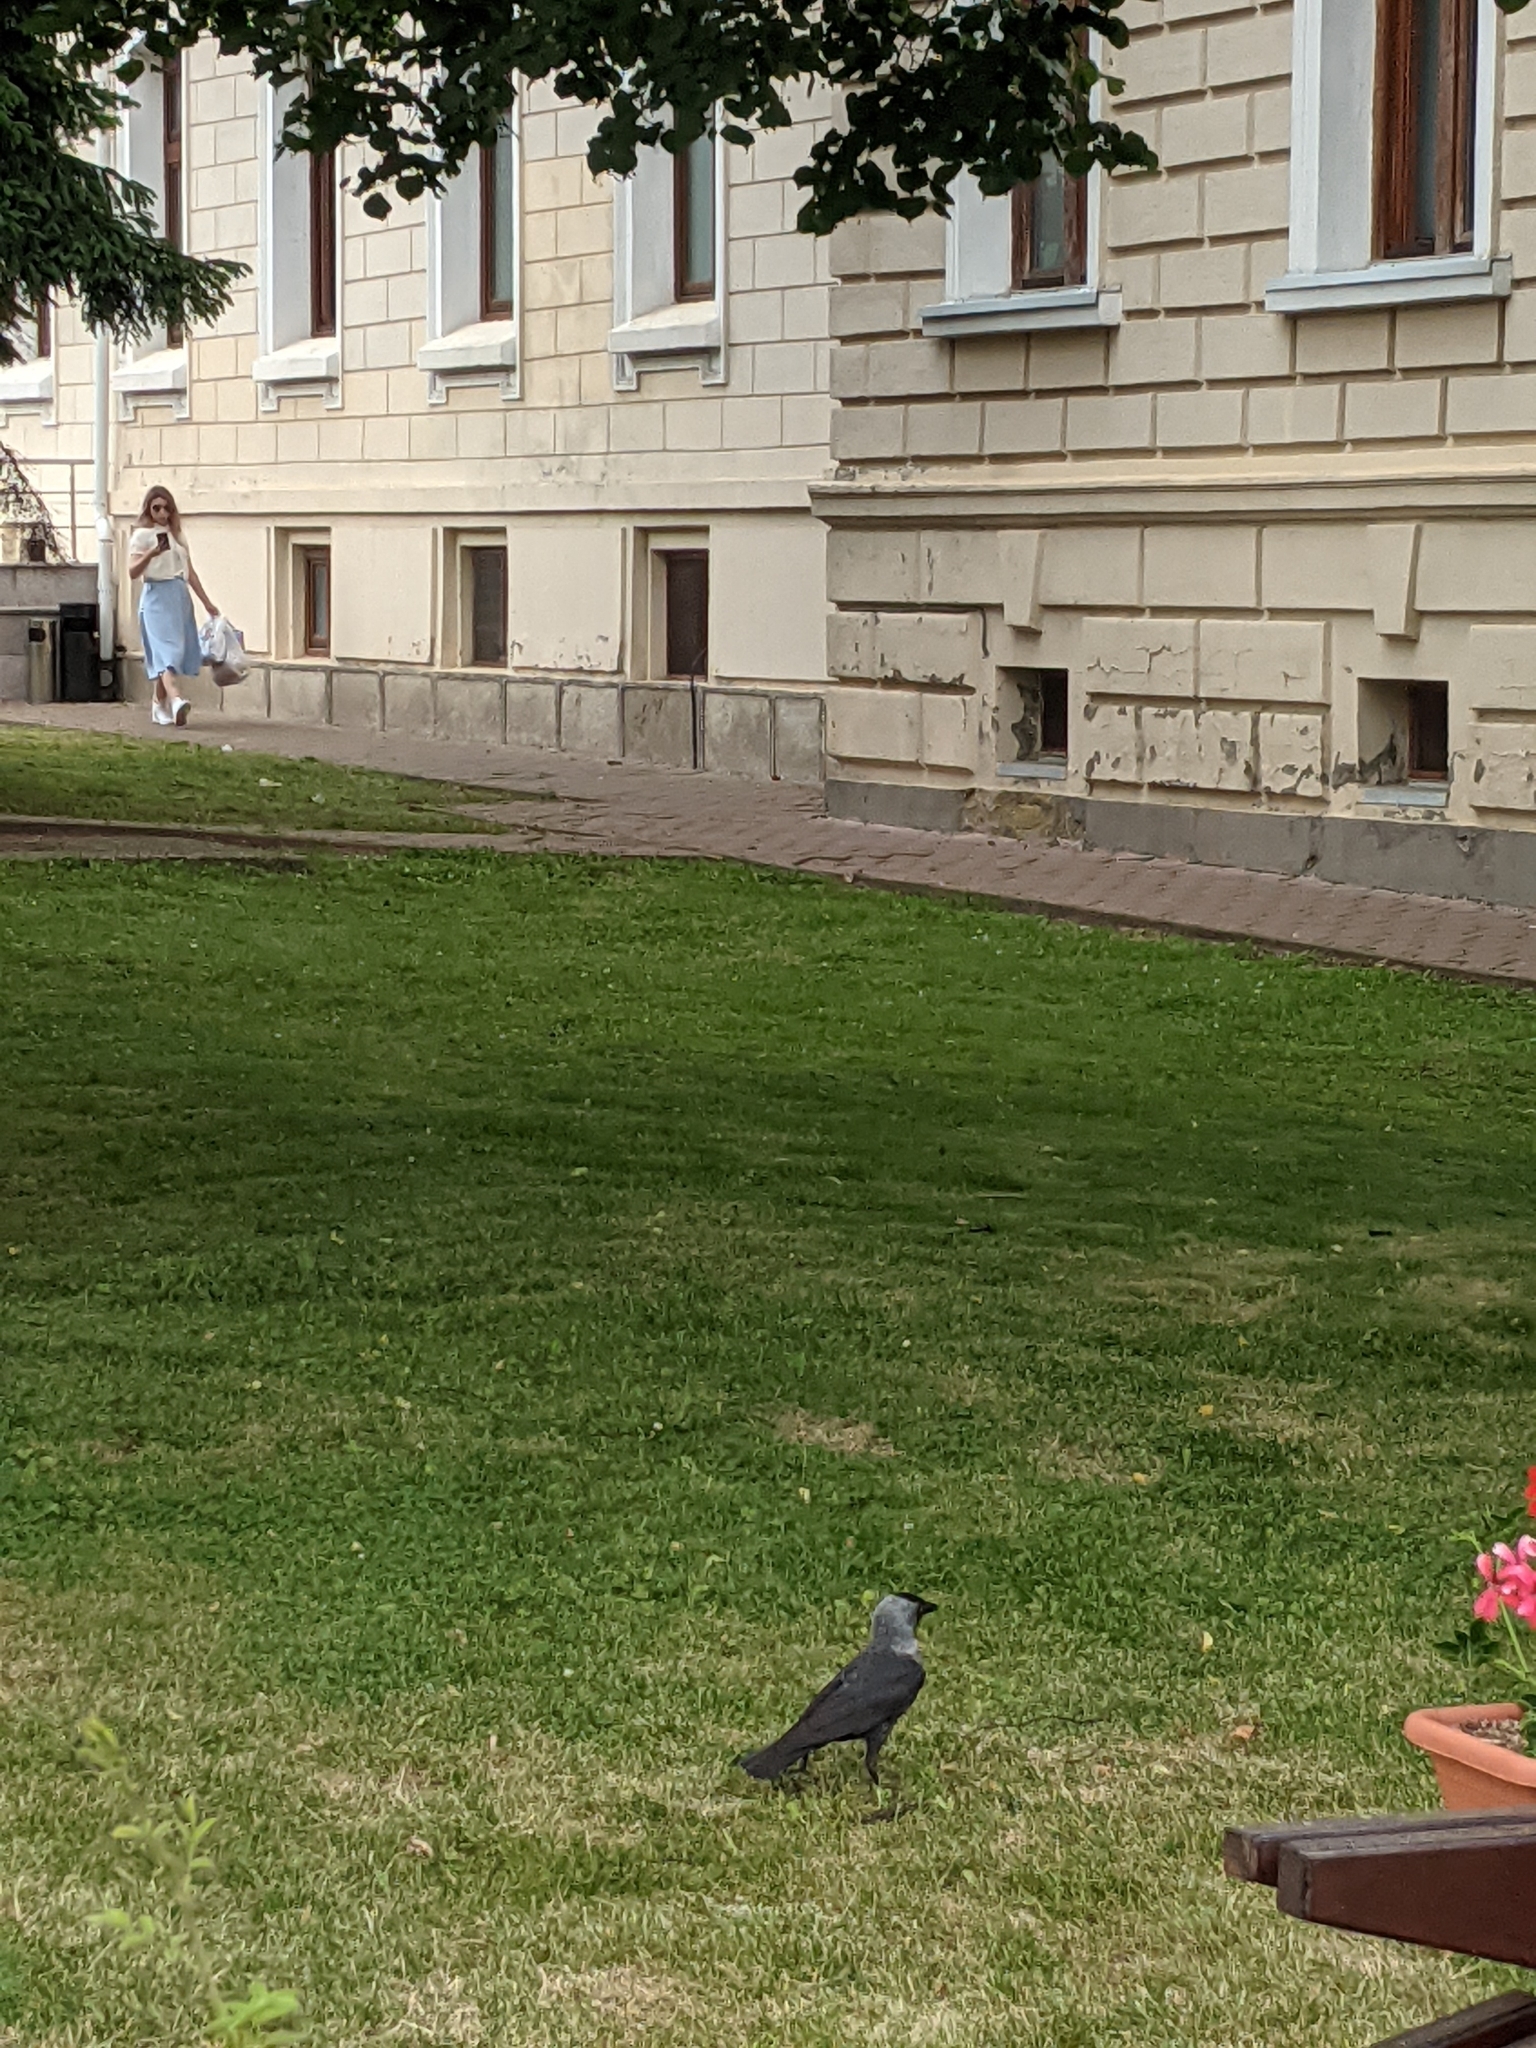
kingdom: Animalia
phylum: Chordata
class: Aves
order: Passeriformes
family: Corvidae
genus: Coloeus
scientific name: Coloeus monedula
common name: Western jackdaw
